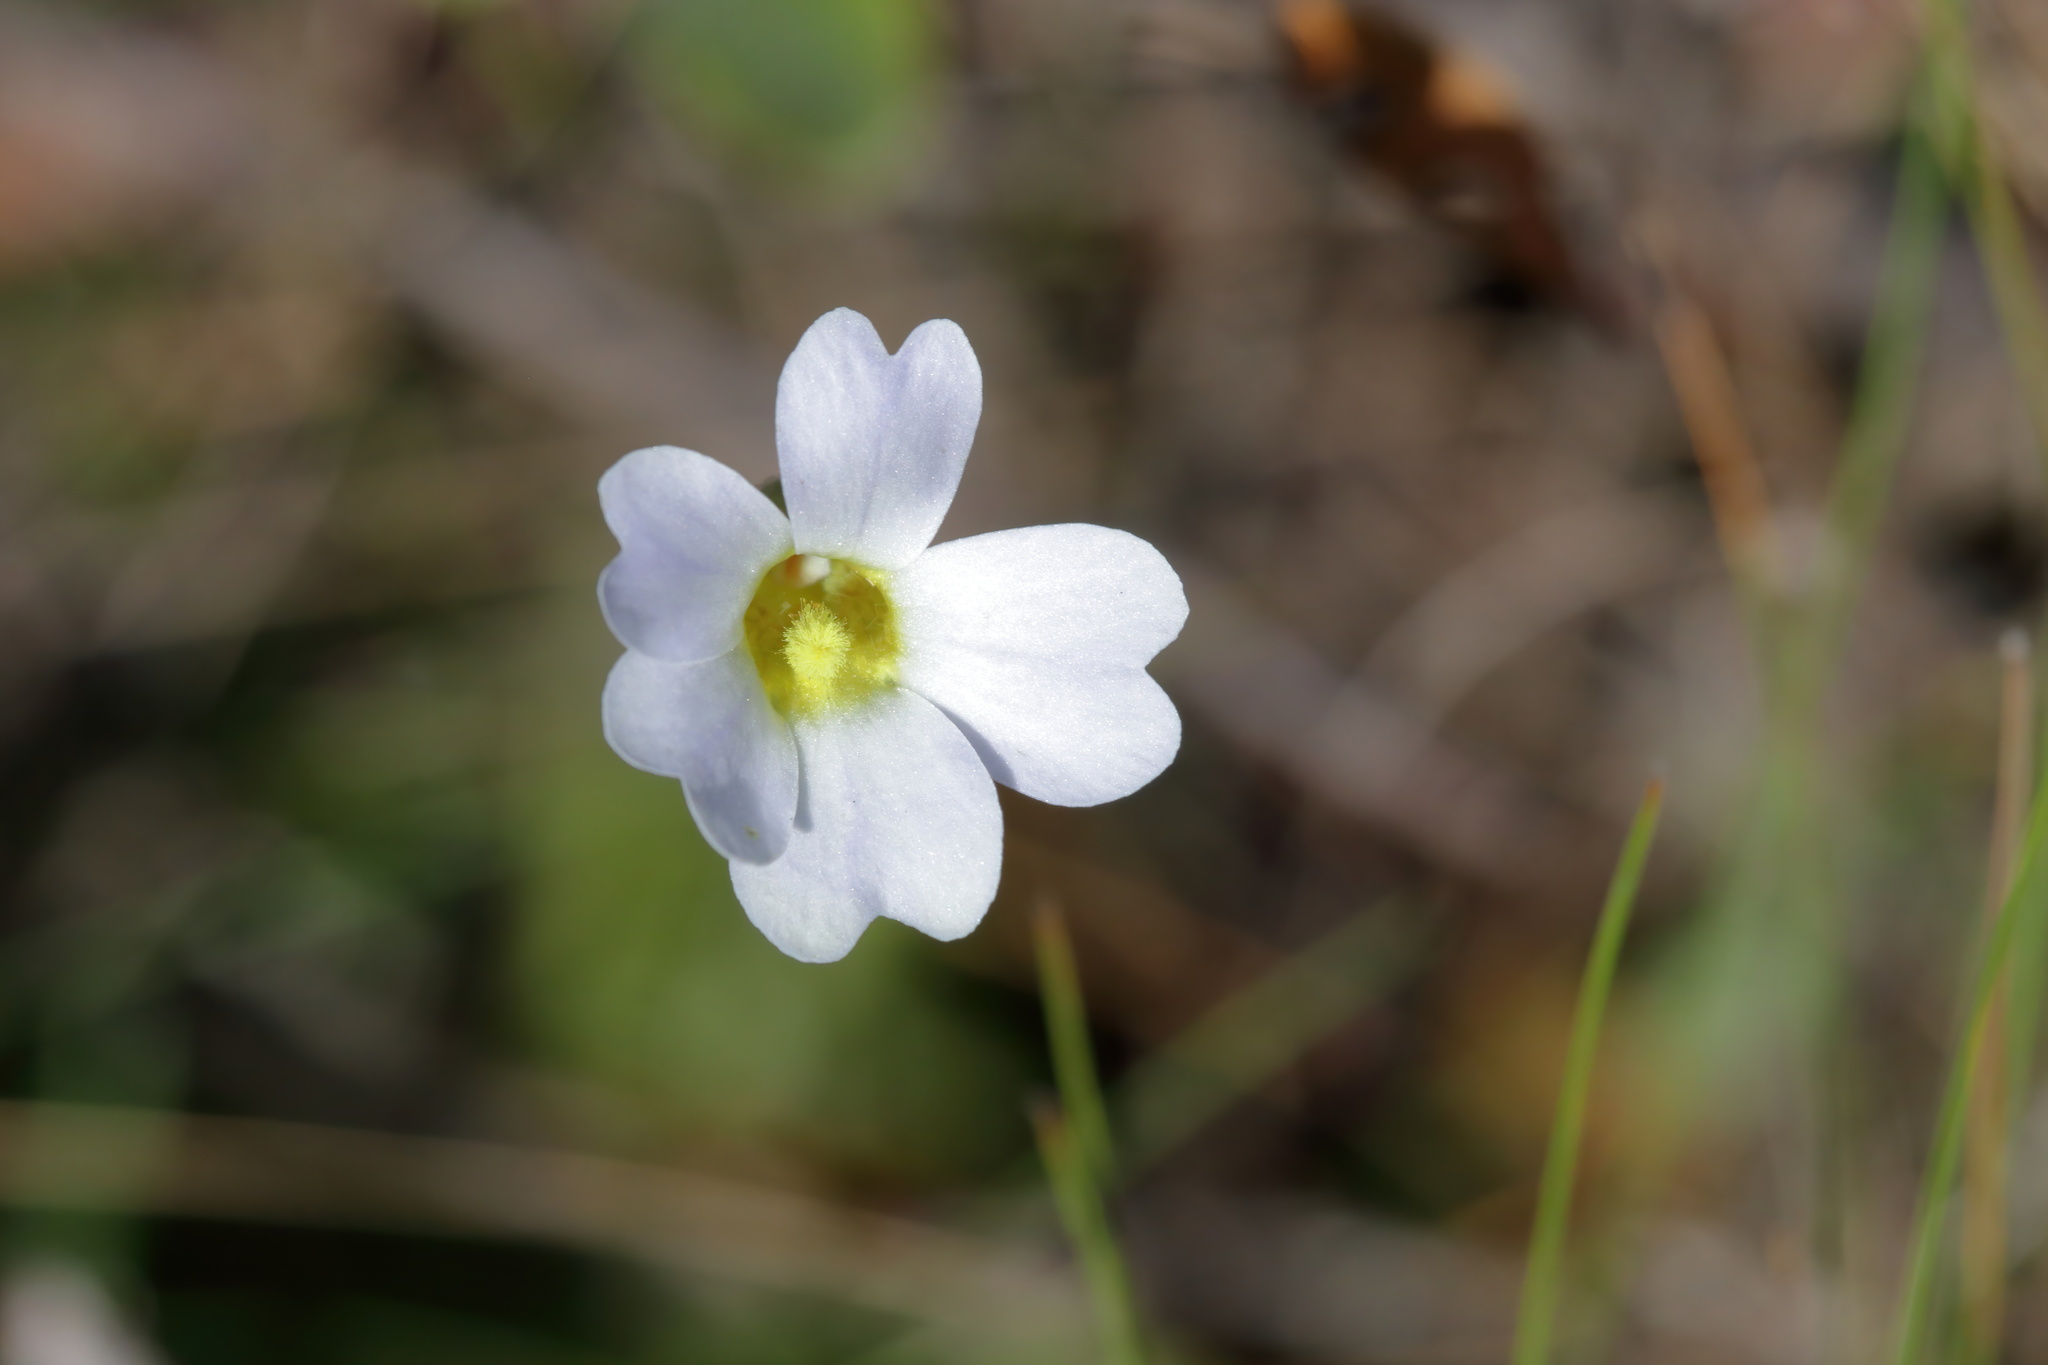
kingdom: Plantae
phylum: Tracheophyta
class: Magnoliopsida
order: Lamiales
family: Lentibulariaceae
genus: Pinguicula
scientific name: Pinguicula primuliflora
